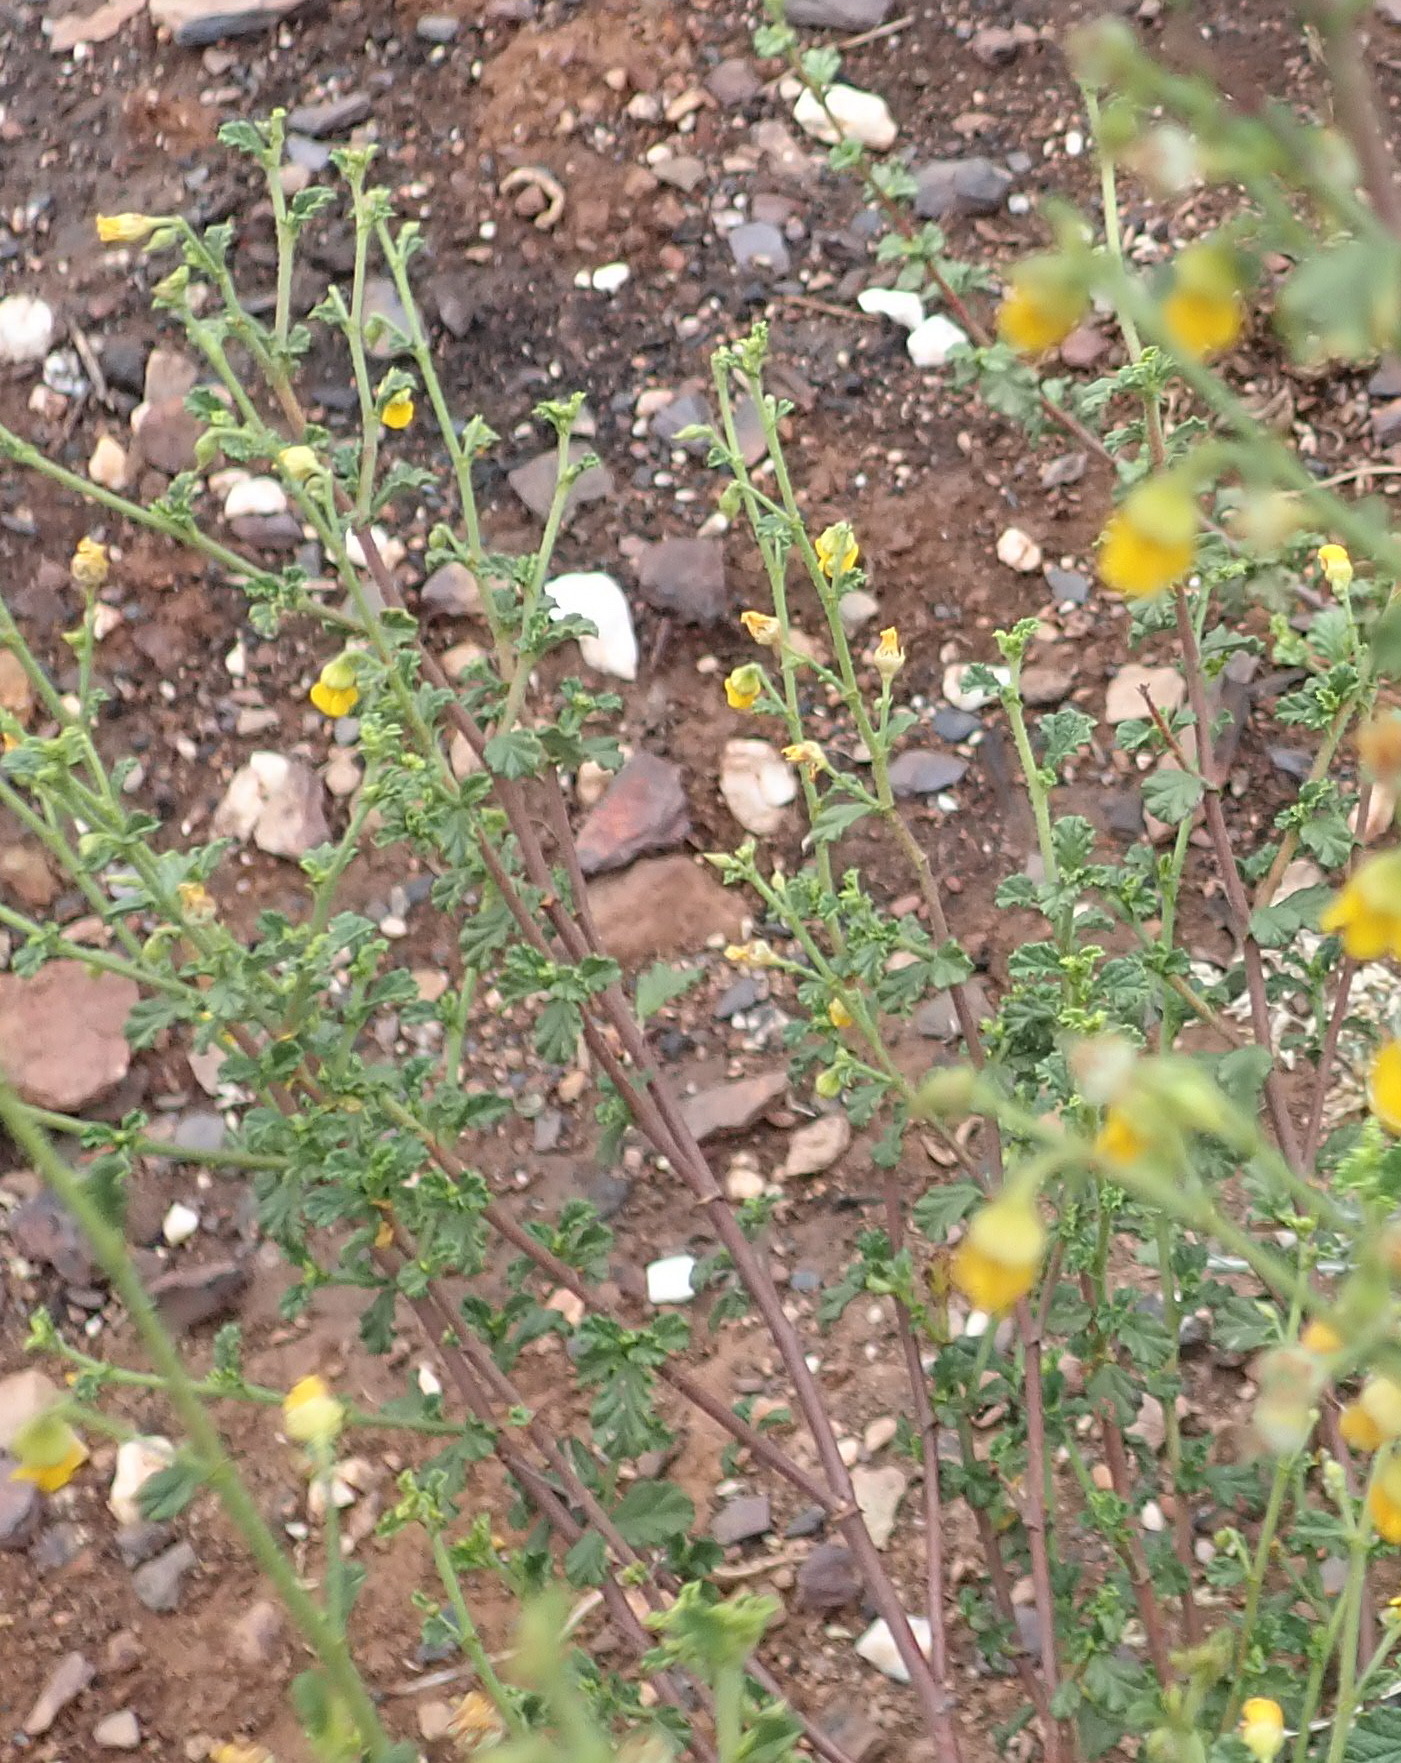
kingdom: Plantae
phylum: Tracheophyta
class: Magnoliopsida
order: Malvales
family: Malvaceae
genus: Hermannia
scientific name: Hermannia alnifolia
